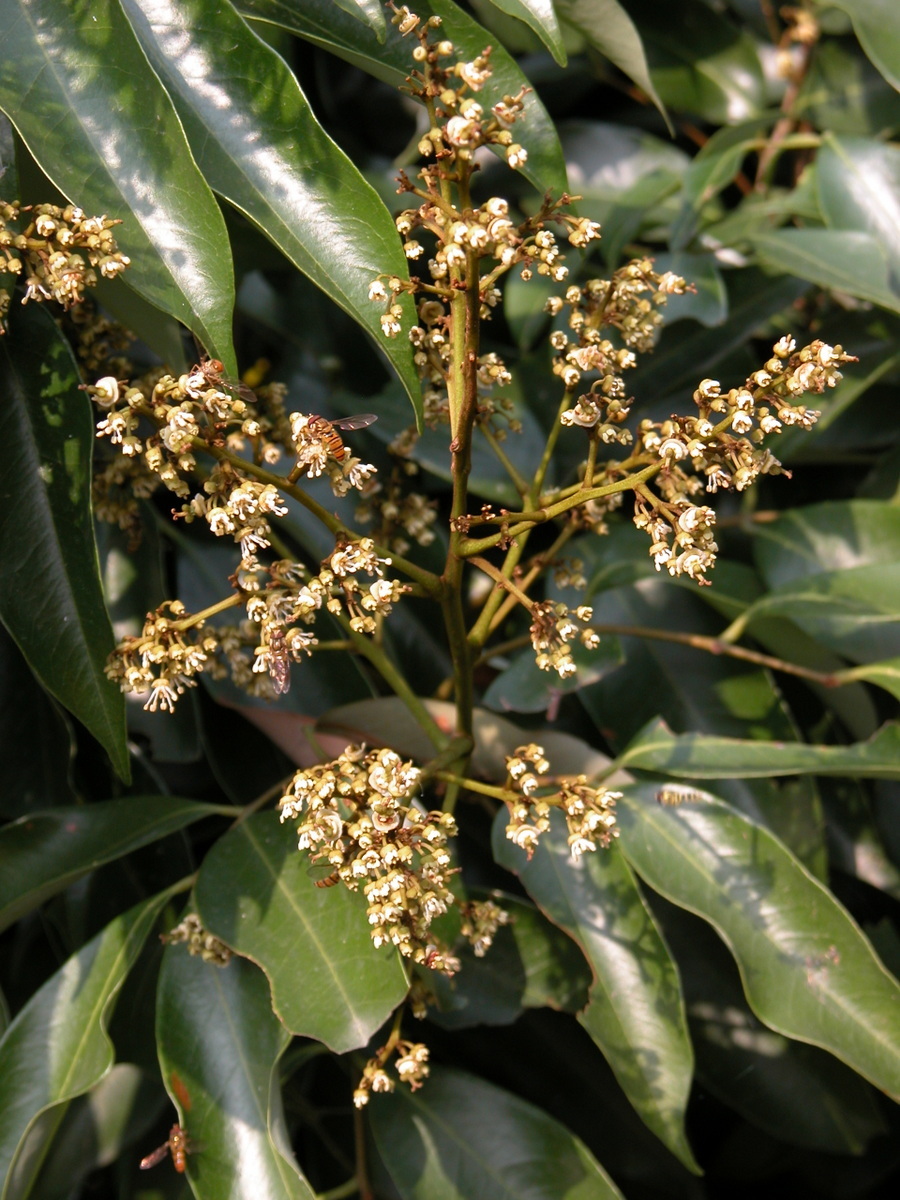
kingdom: Plantae
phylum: Tracheophyta
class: Magnoliopsida
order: Sapindales
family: Anacardiaceae
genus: Mangifera
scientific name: Mangifera indica
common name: Mango
